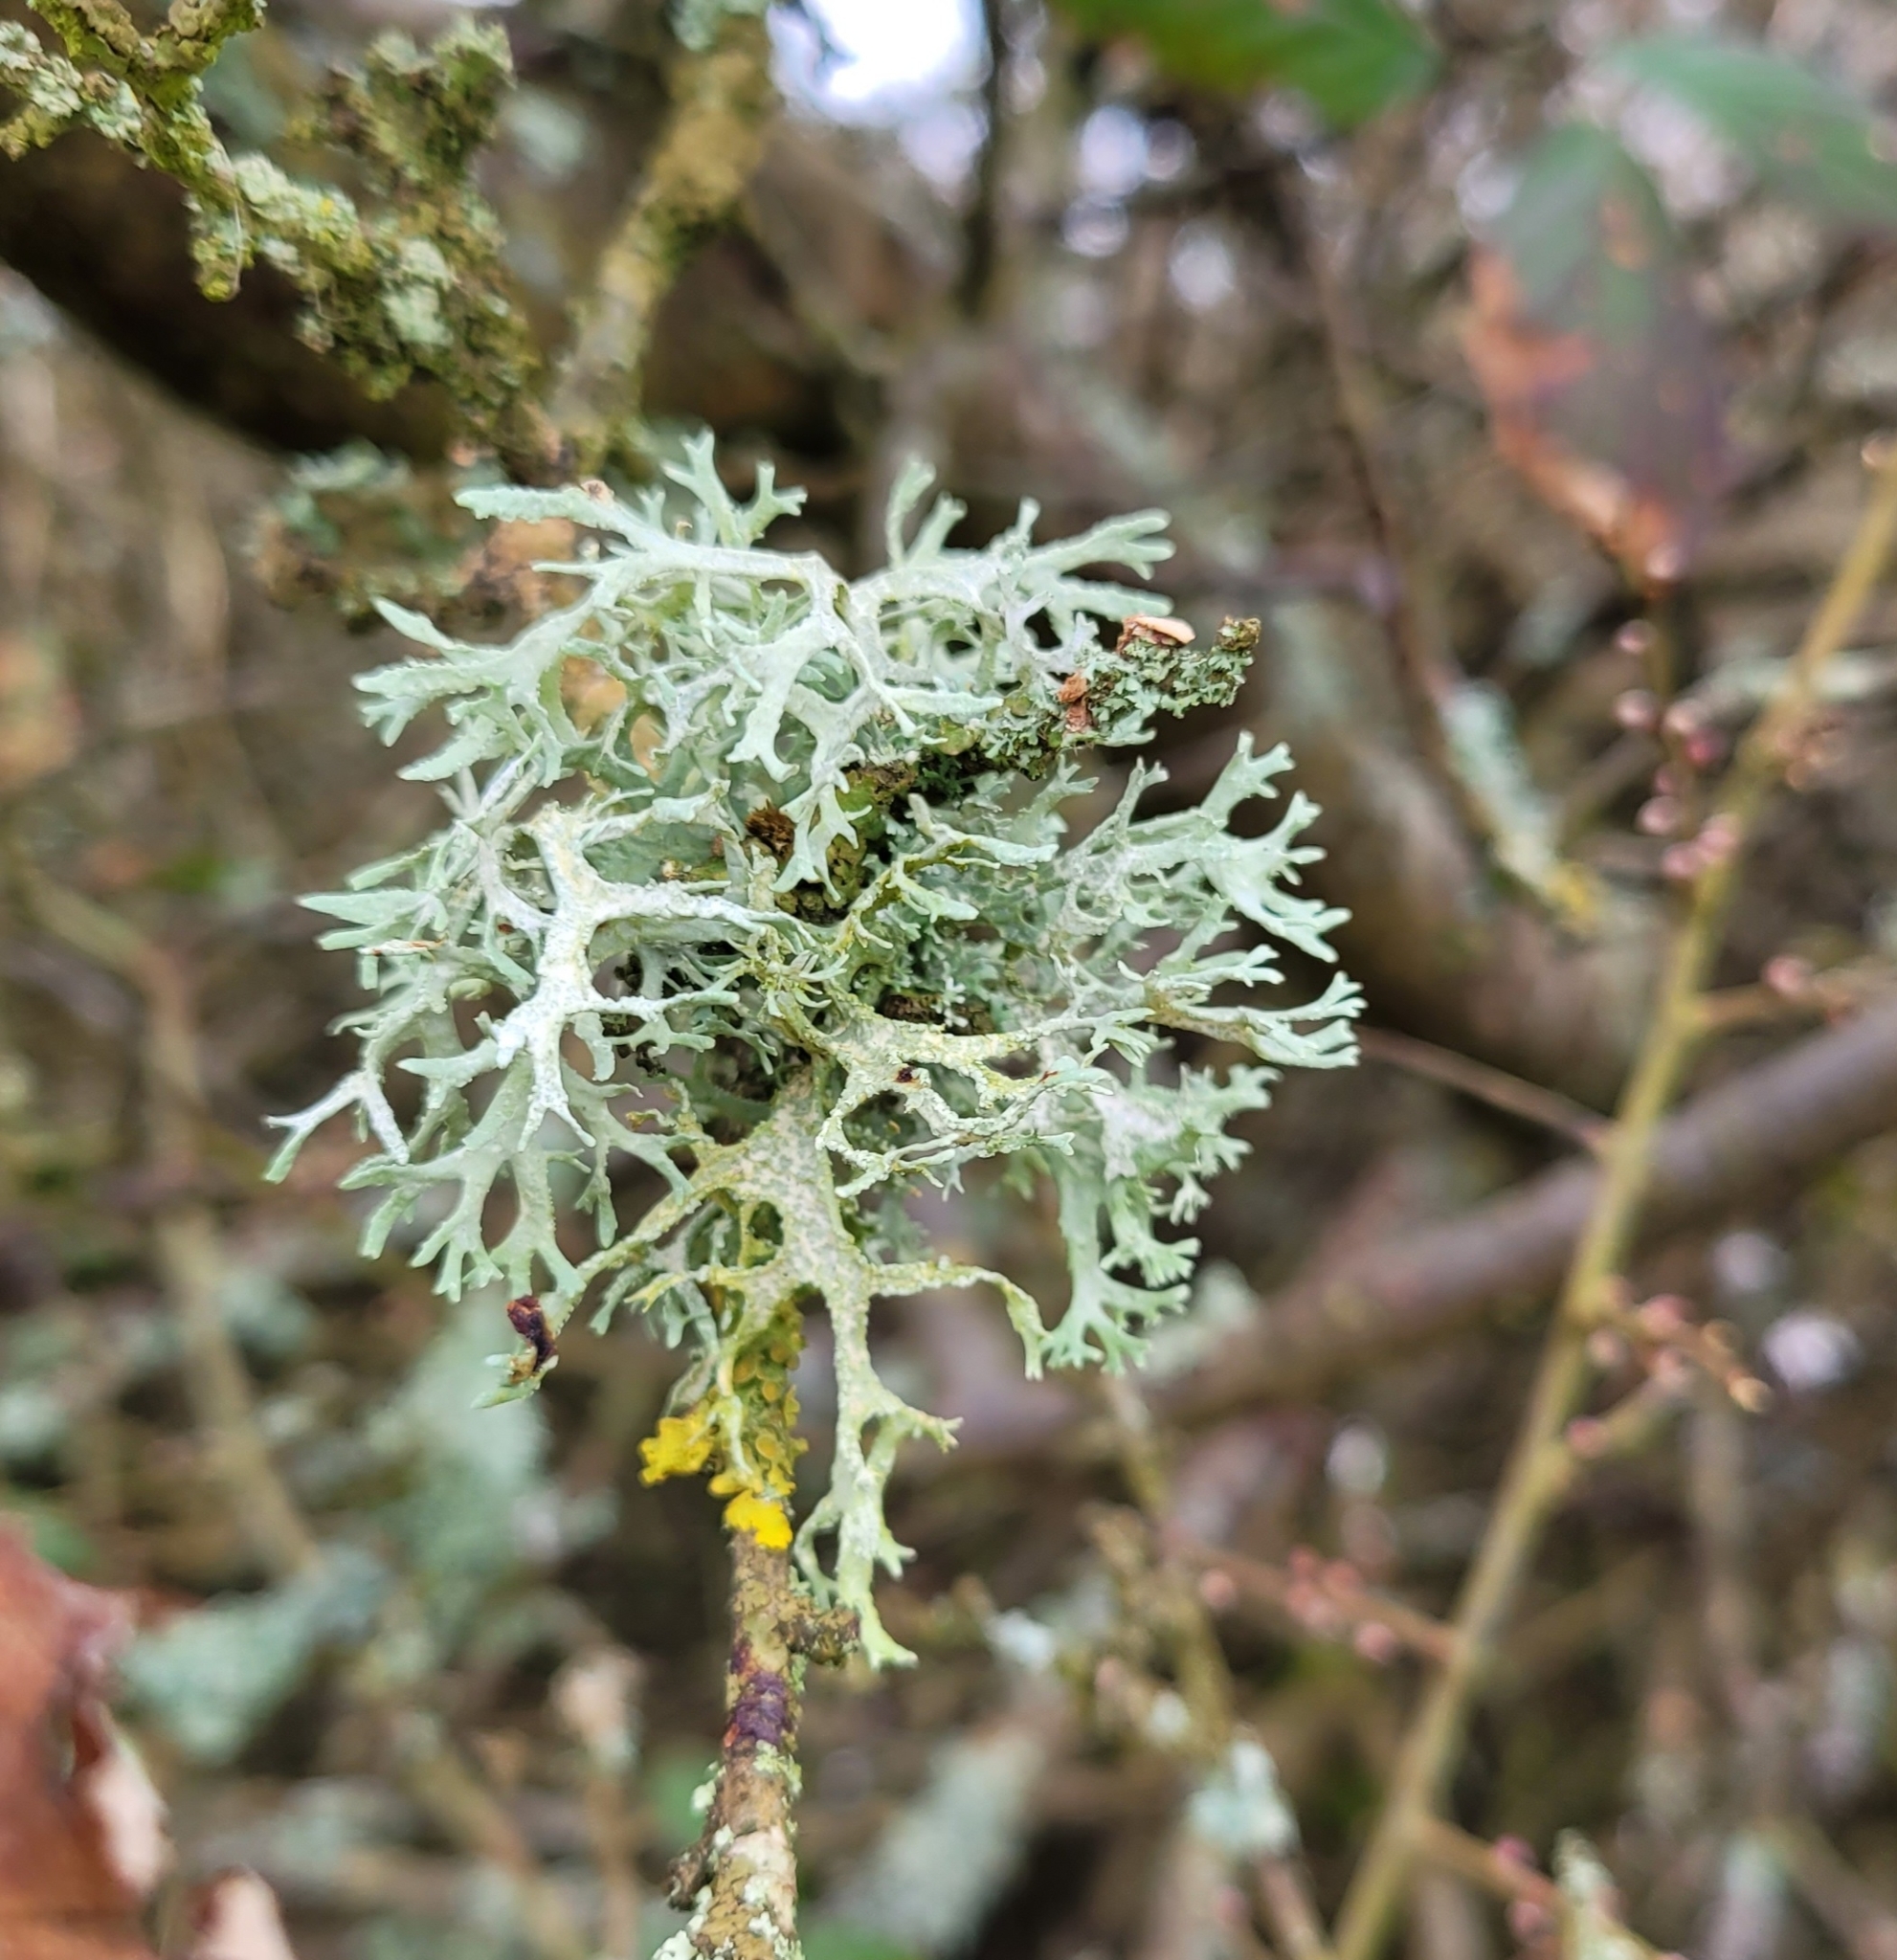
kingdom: Fungi
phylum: Ascomycota
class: Lecanoromycetes
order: Lecanorales
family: Parmeliaceae
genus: Evernia
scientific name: Evernia prunastri
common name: Oak moss
